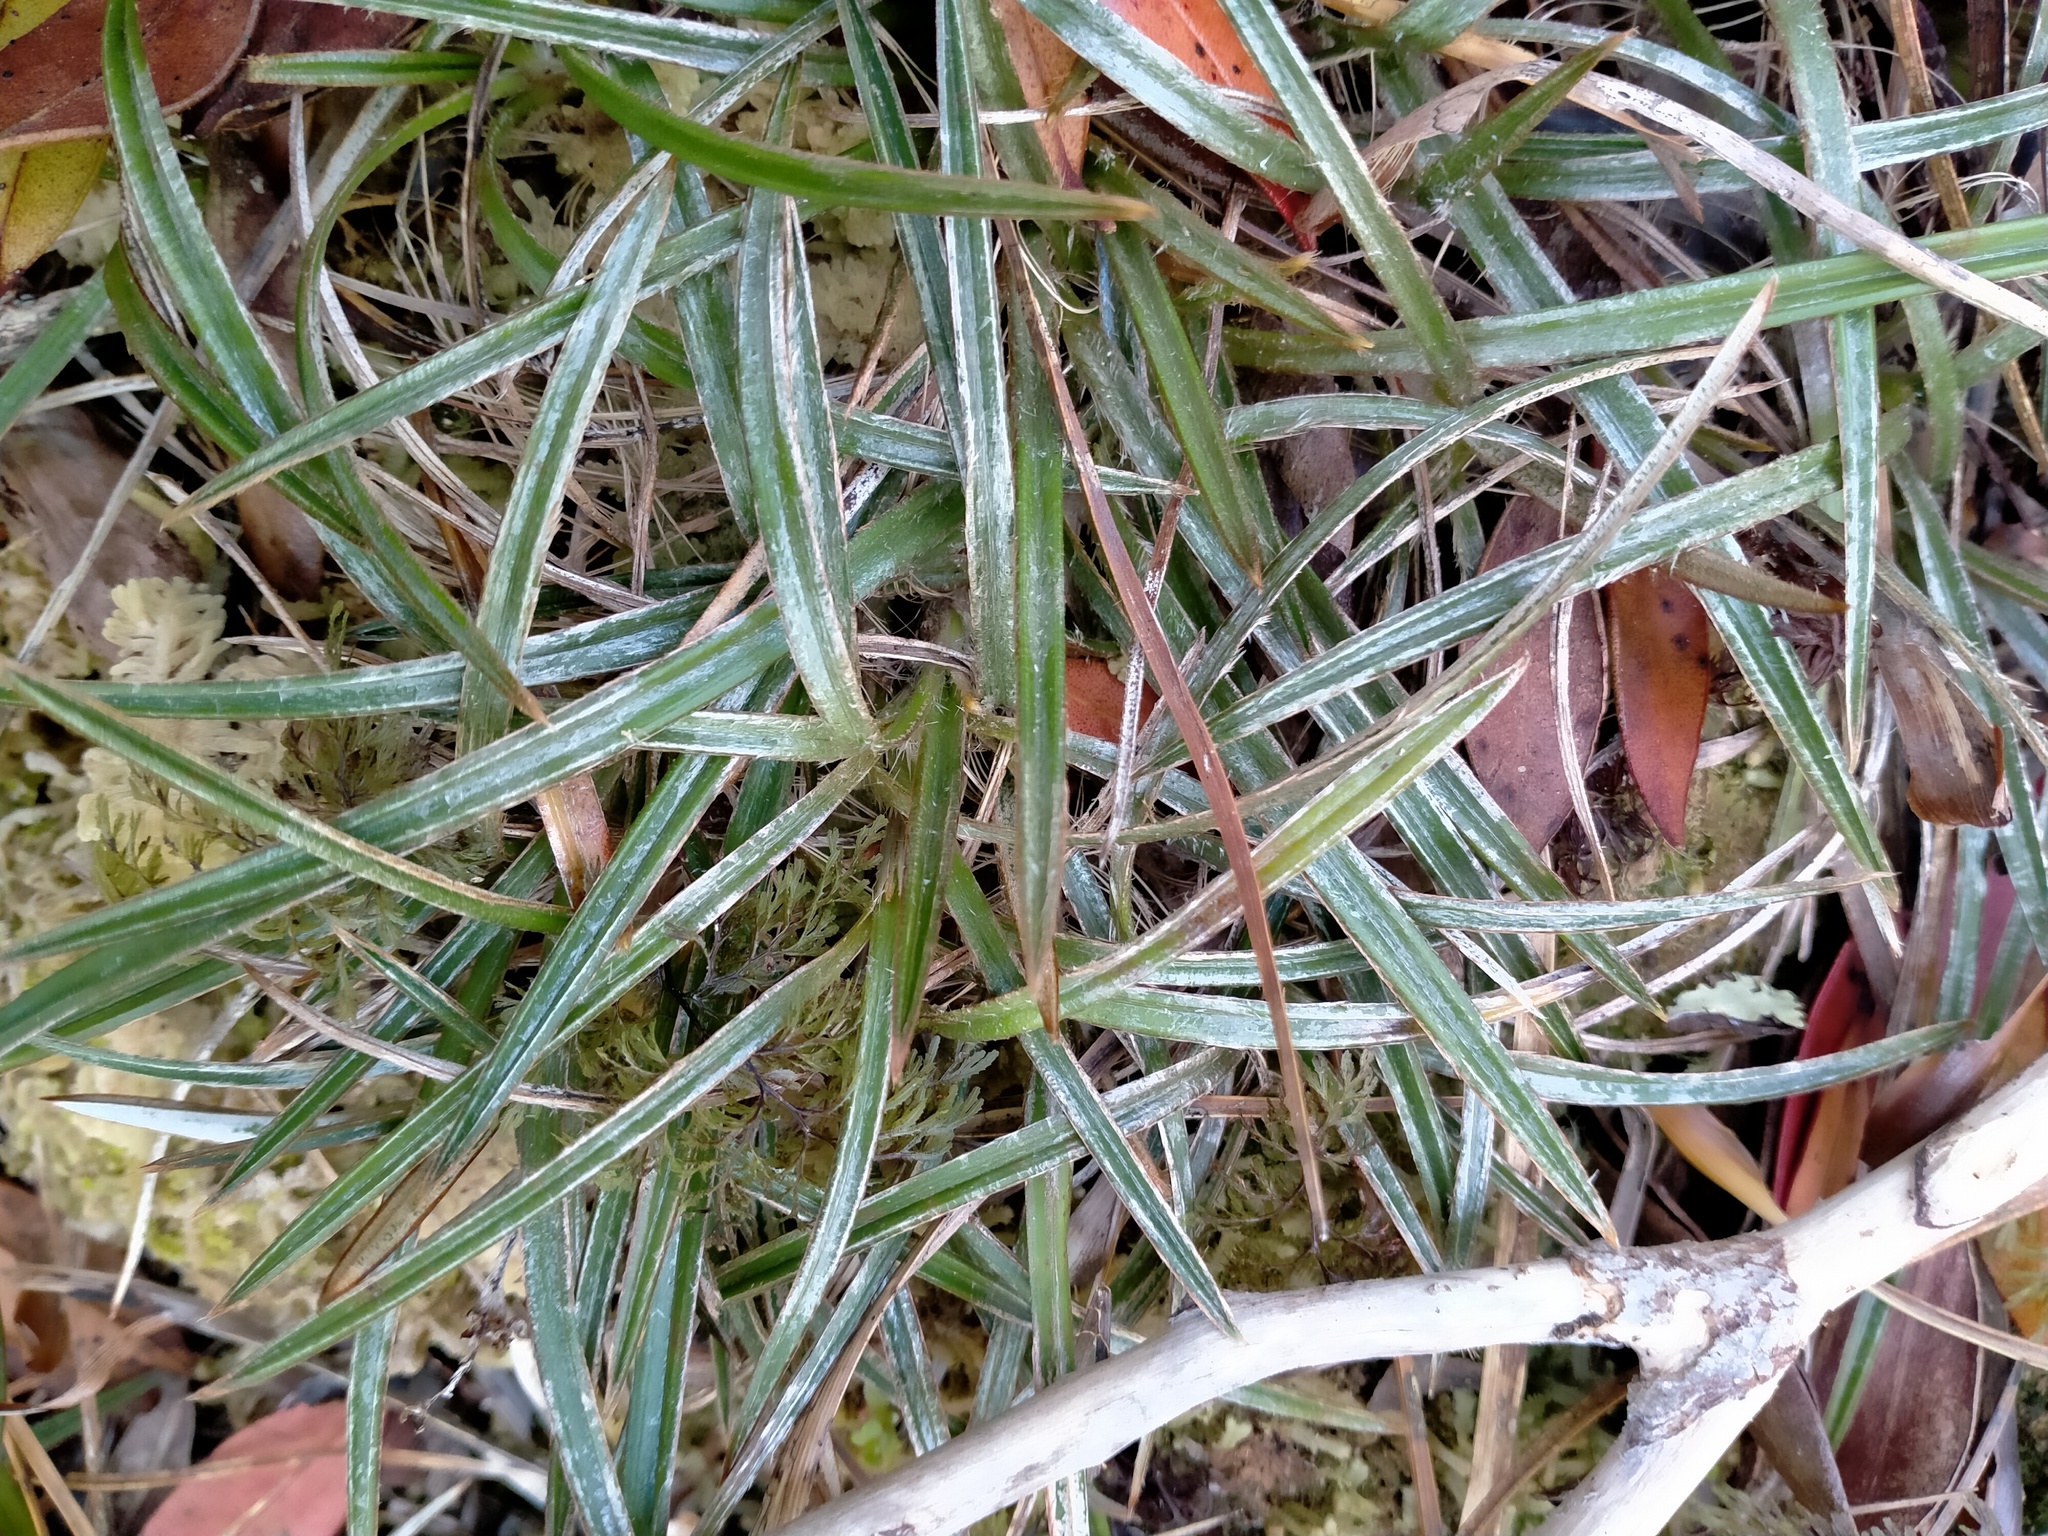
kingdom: Plantae
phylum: Tracheophyta
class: Liliopsida
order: Asparagales
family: Asteliaceae
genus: Astelia
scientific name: Astelia linearis
